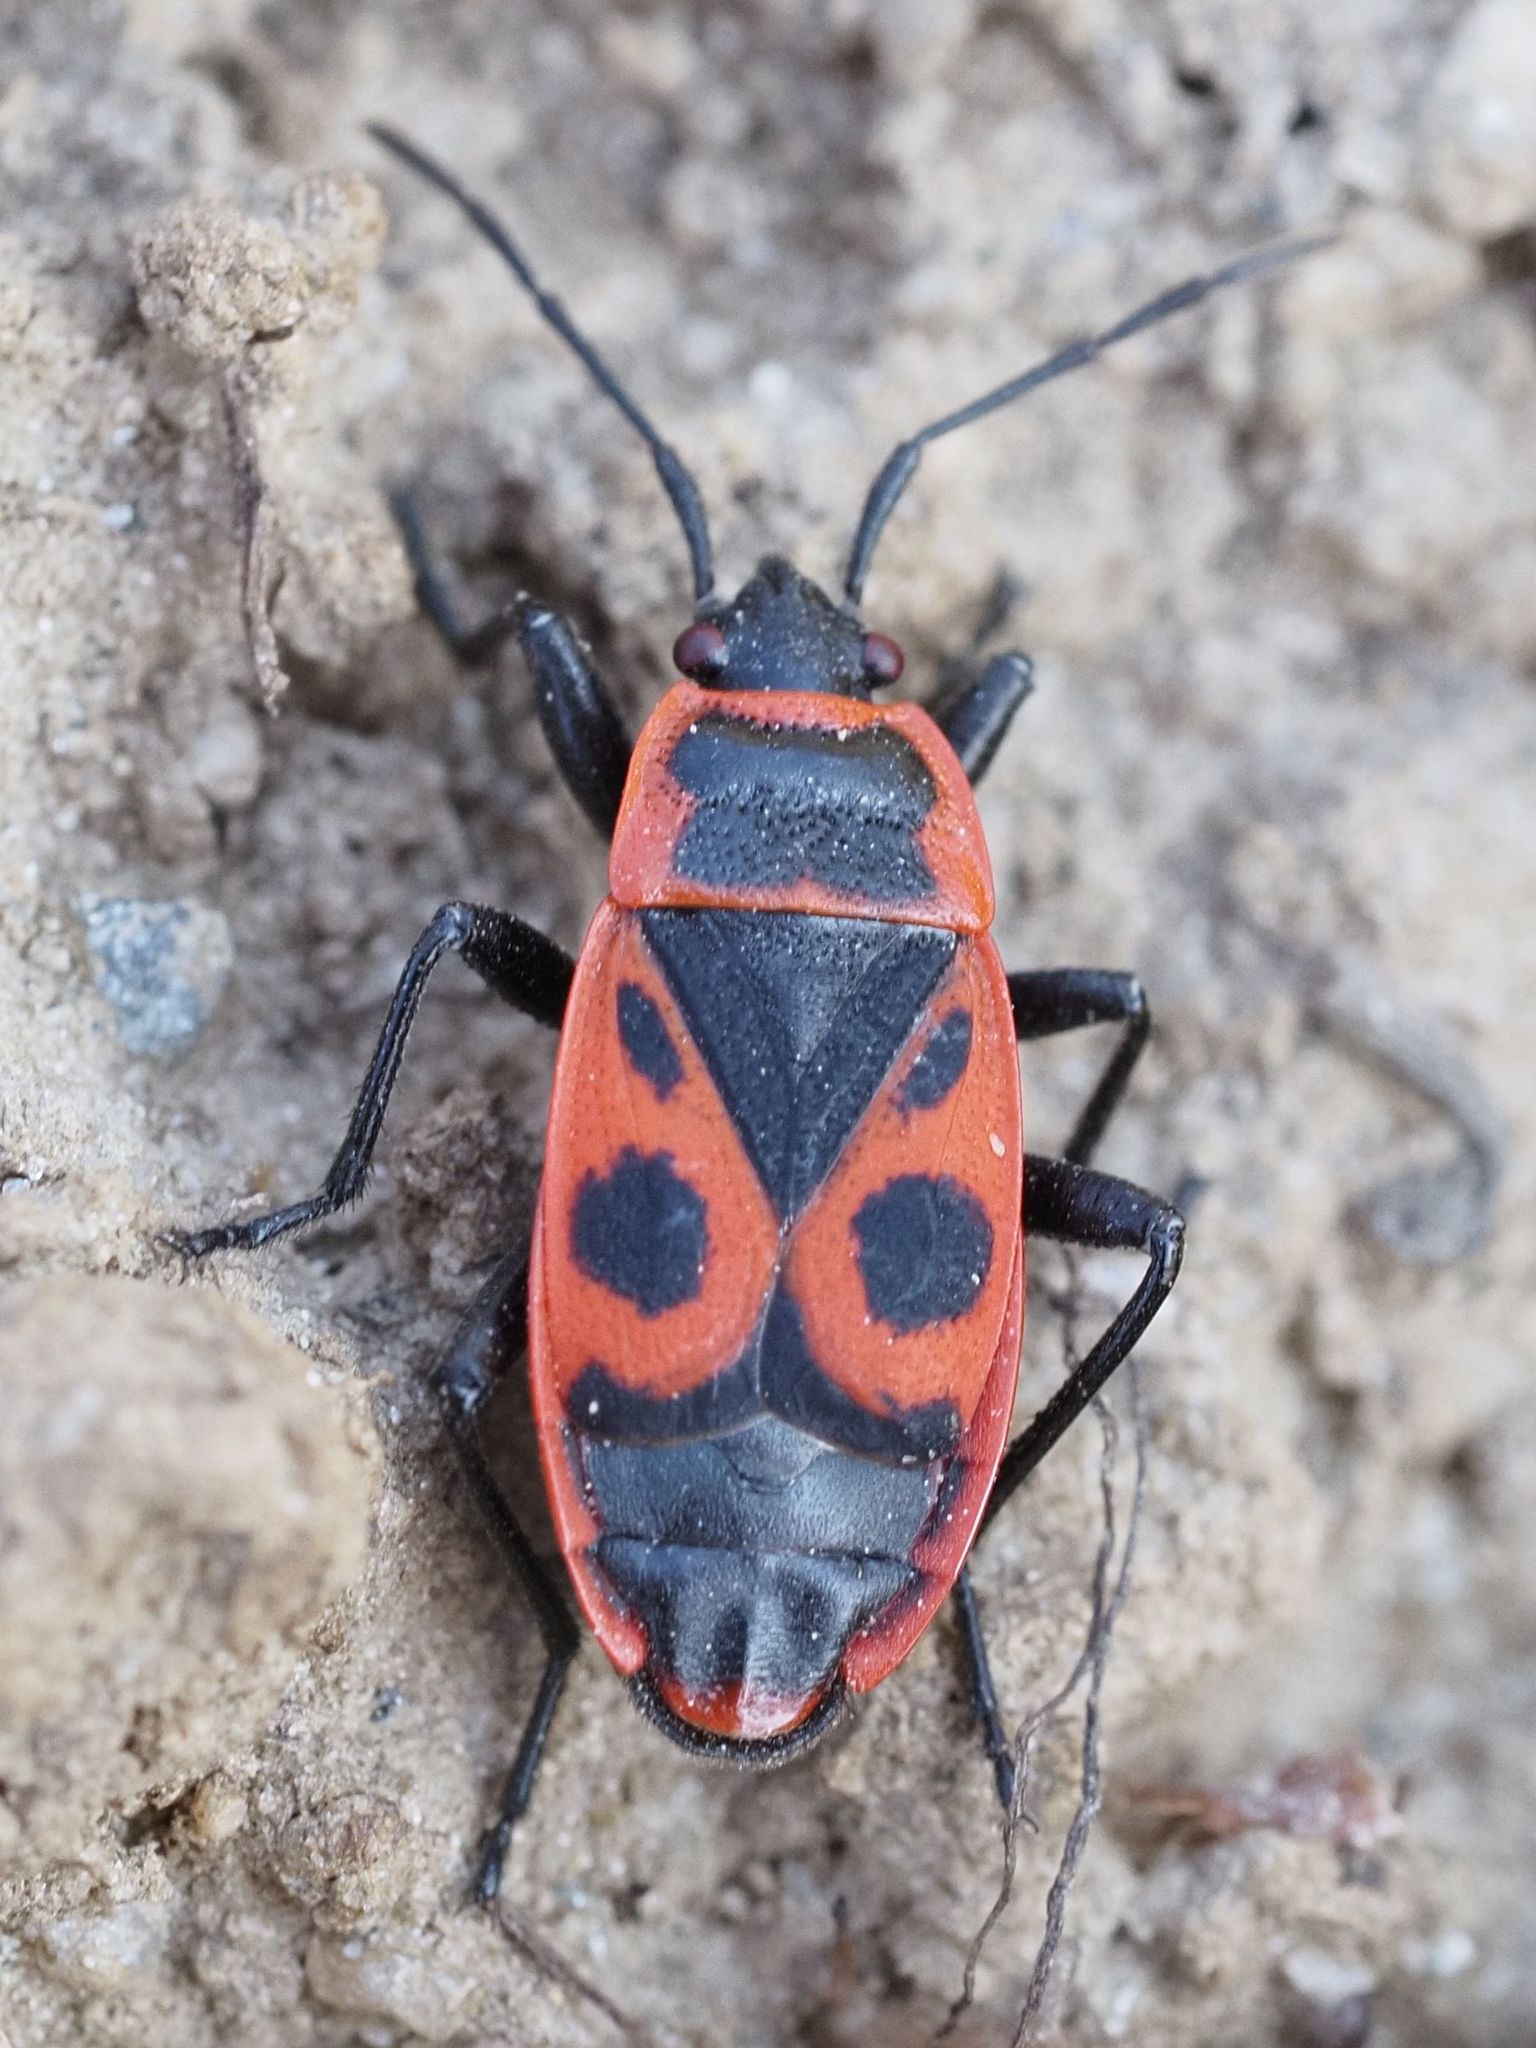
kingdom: Animalia
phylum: Arthropoda
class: Insecta
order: Hemiptera
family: Pyrrhocoridae
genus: Pyrrhocoris
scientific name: Pyrrhocoris apterus
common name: Firebug
